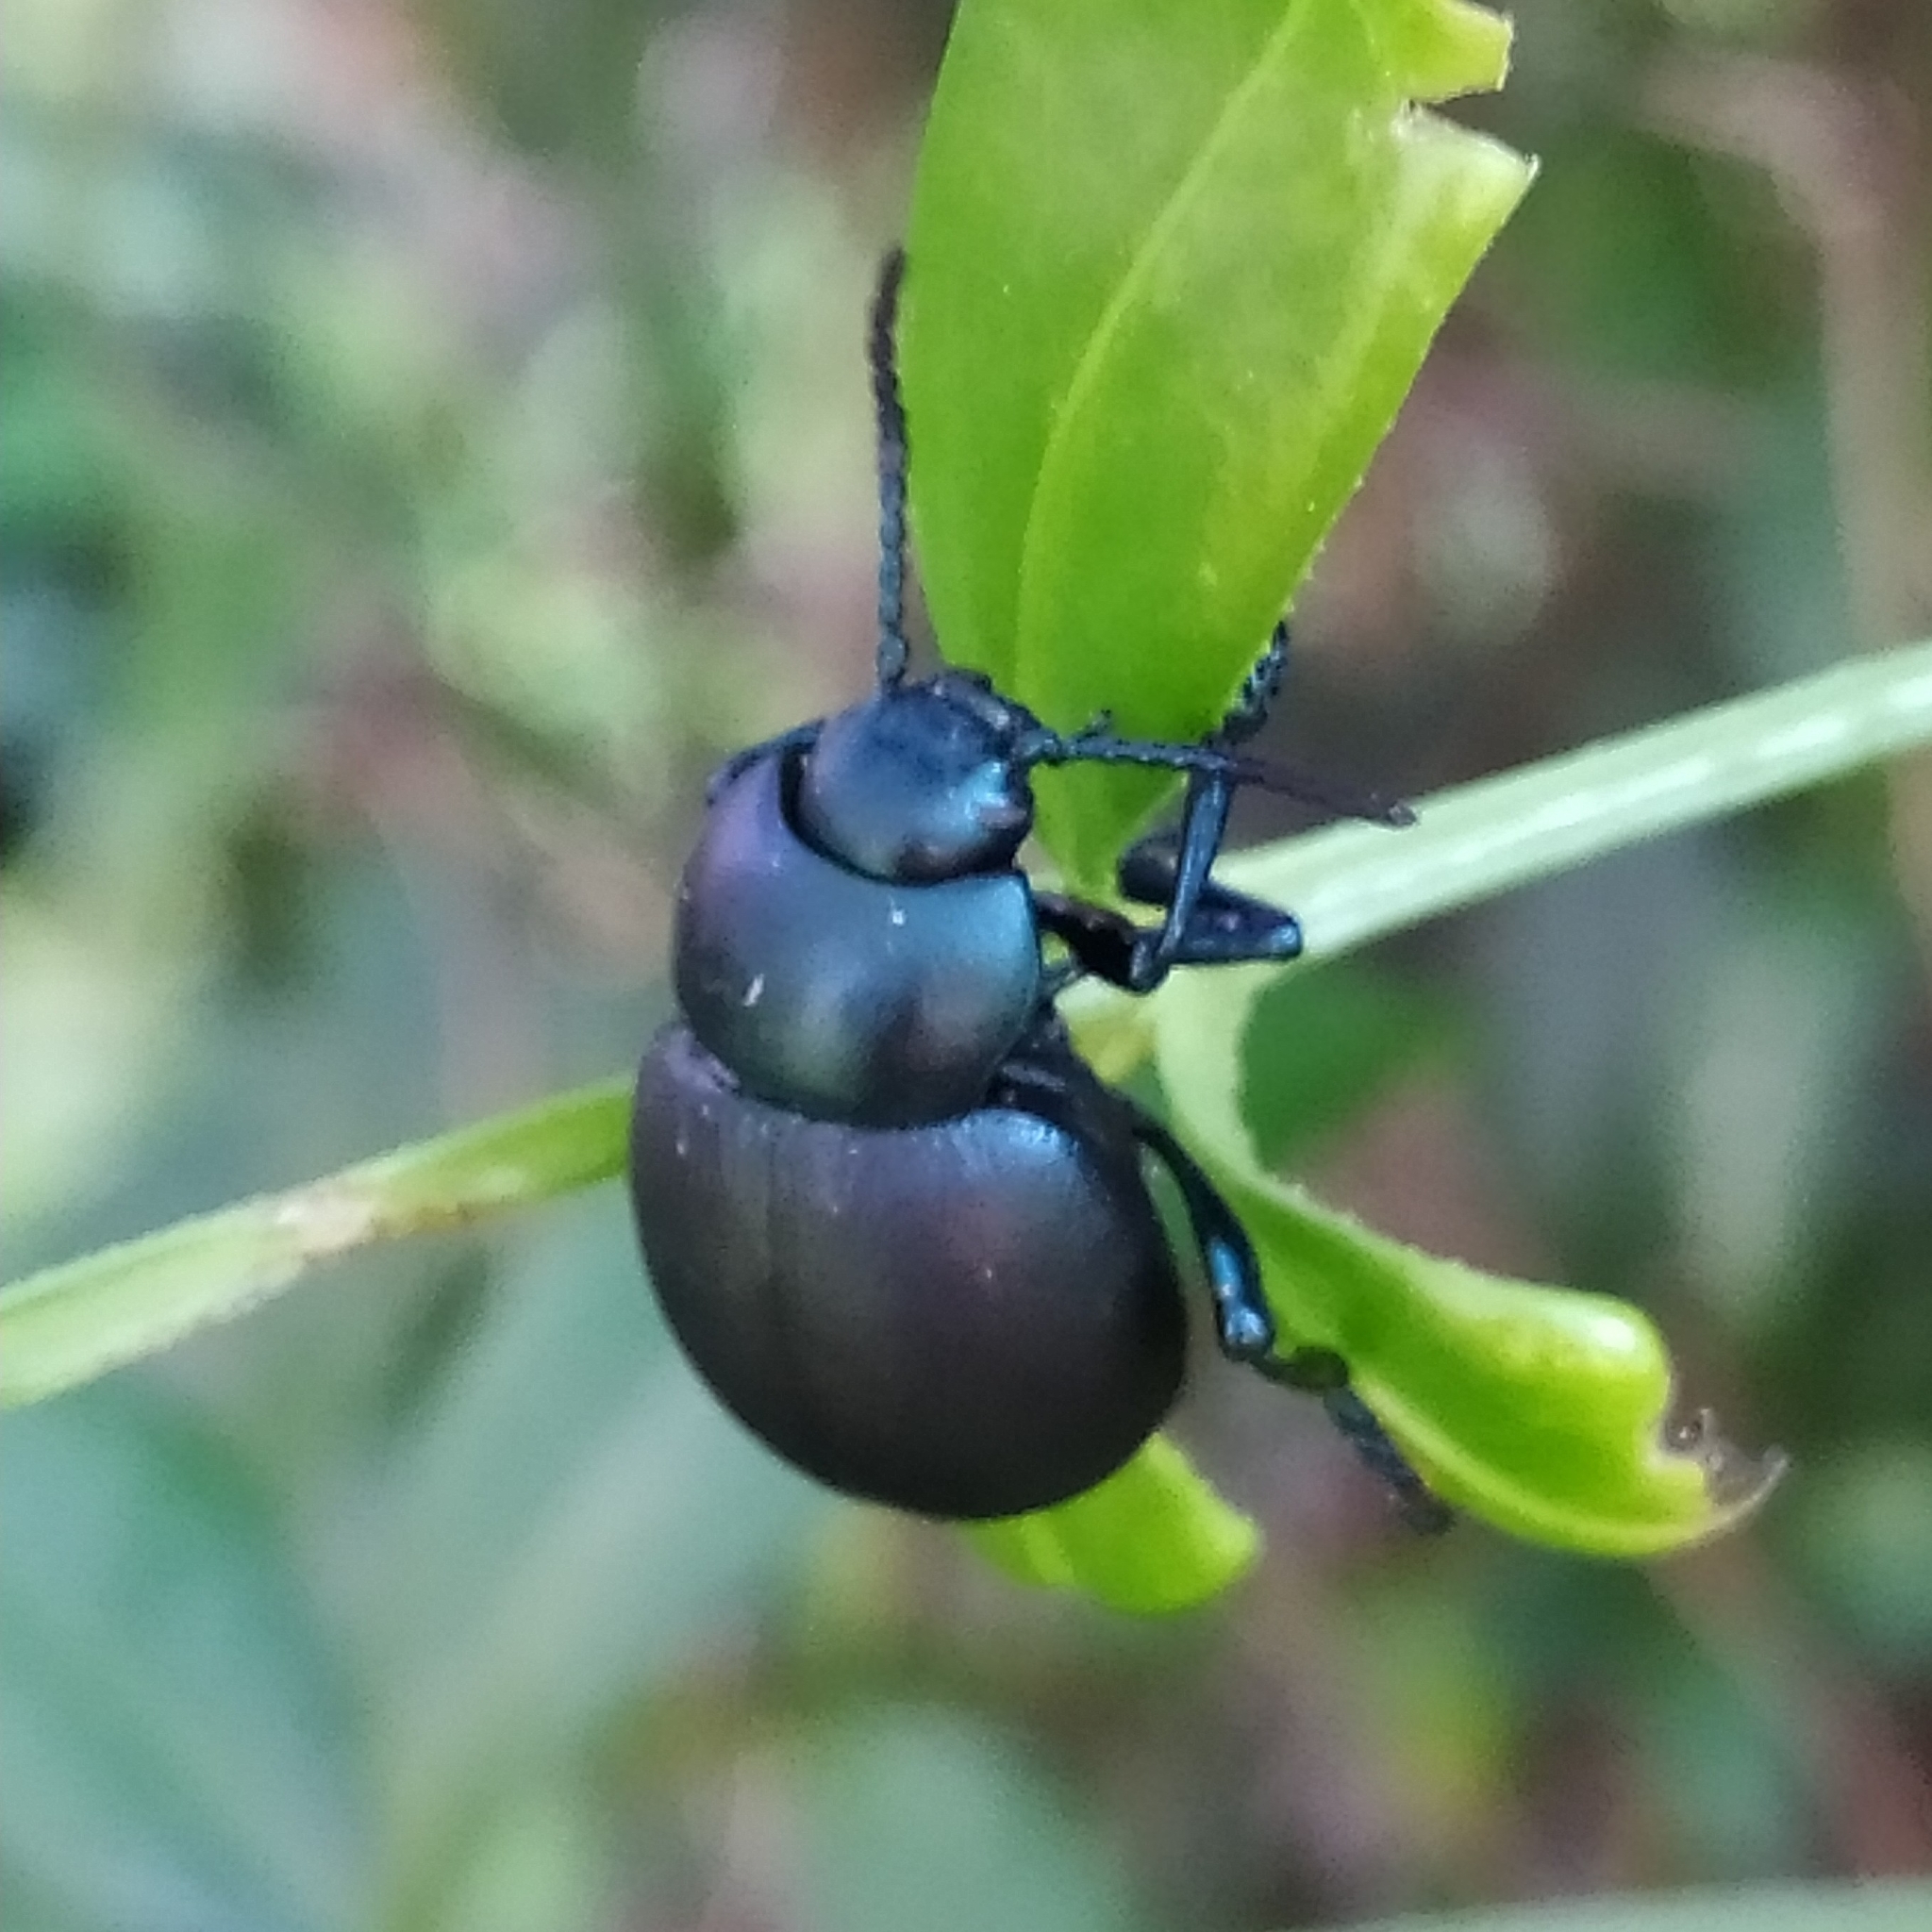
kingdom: Animalia
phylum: Arthropoda
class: Insecta
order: Coleoptera
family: Chrysomelidae
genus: Timarcha
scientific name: Timarcha nicaeensis
